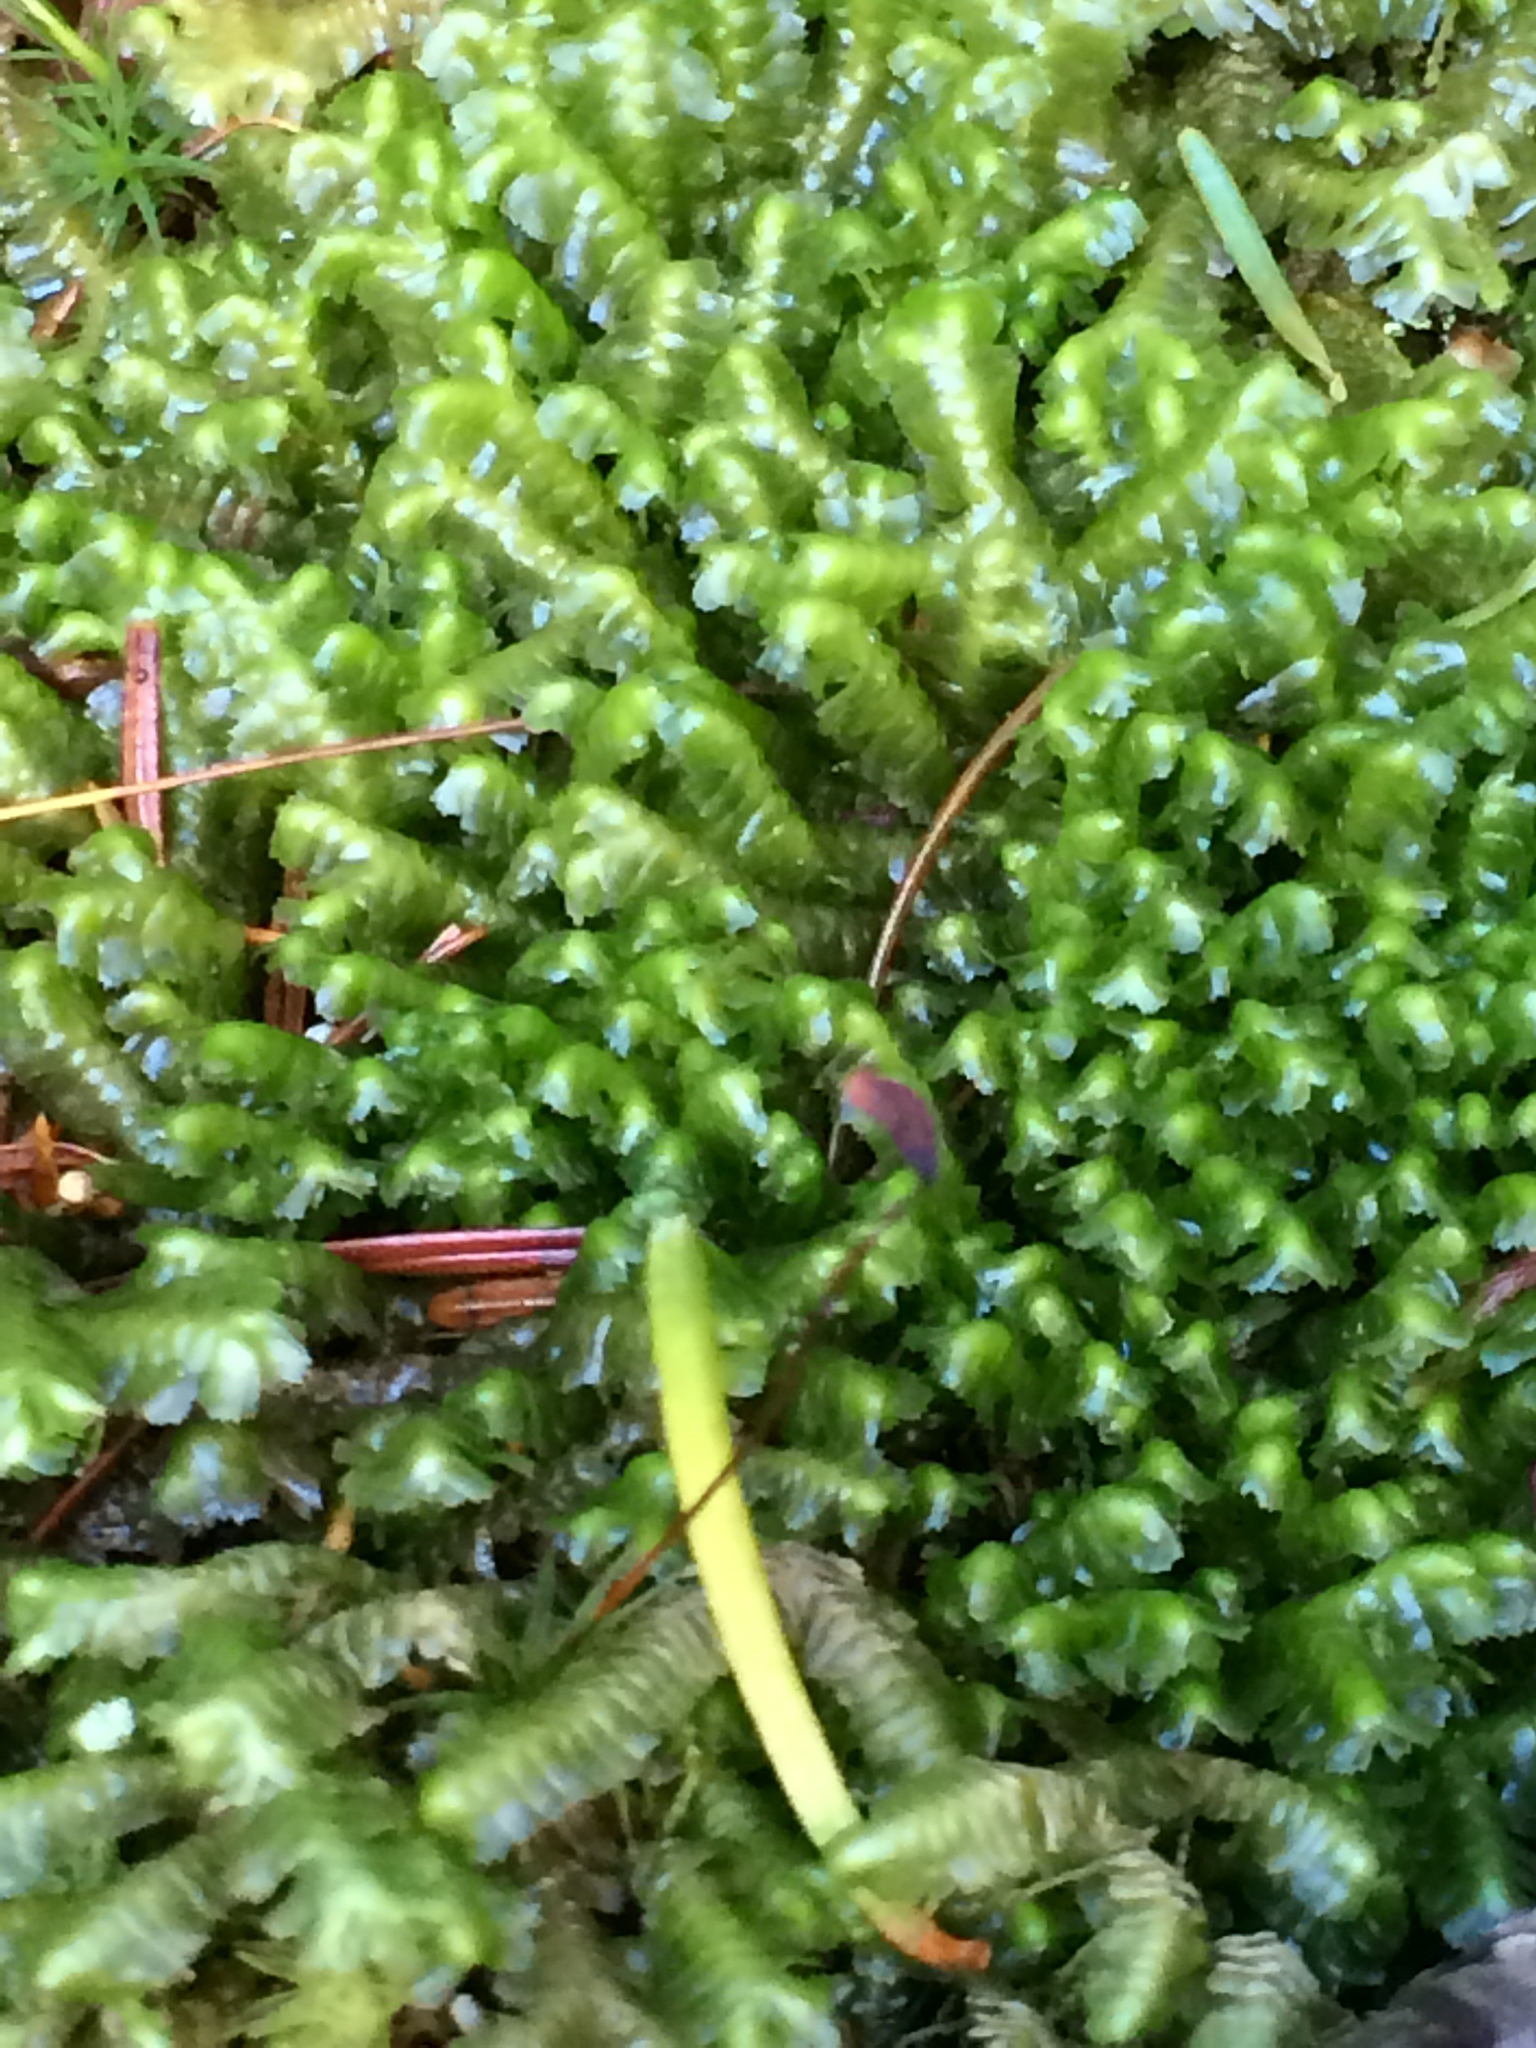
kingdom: Plantae
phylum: Marchantiophyta
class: Jungermanniopsida
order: Jungermanniales
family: Lepidoziaceae
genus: Bazzania
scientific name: Bazzania trilobata
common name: Three-lobed whipwort
